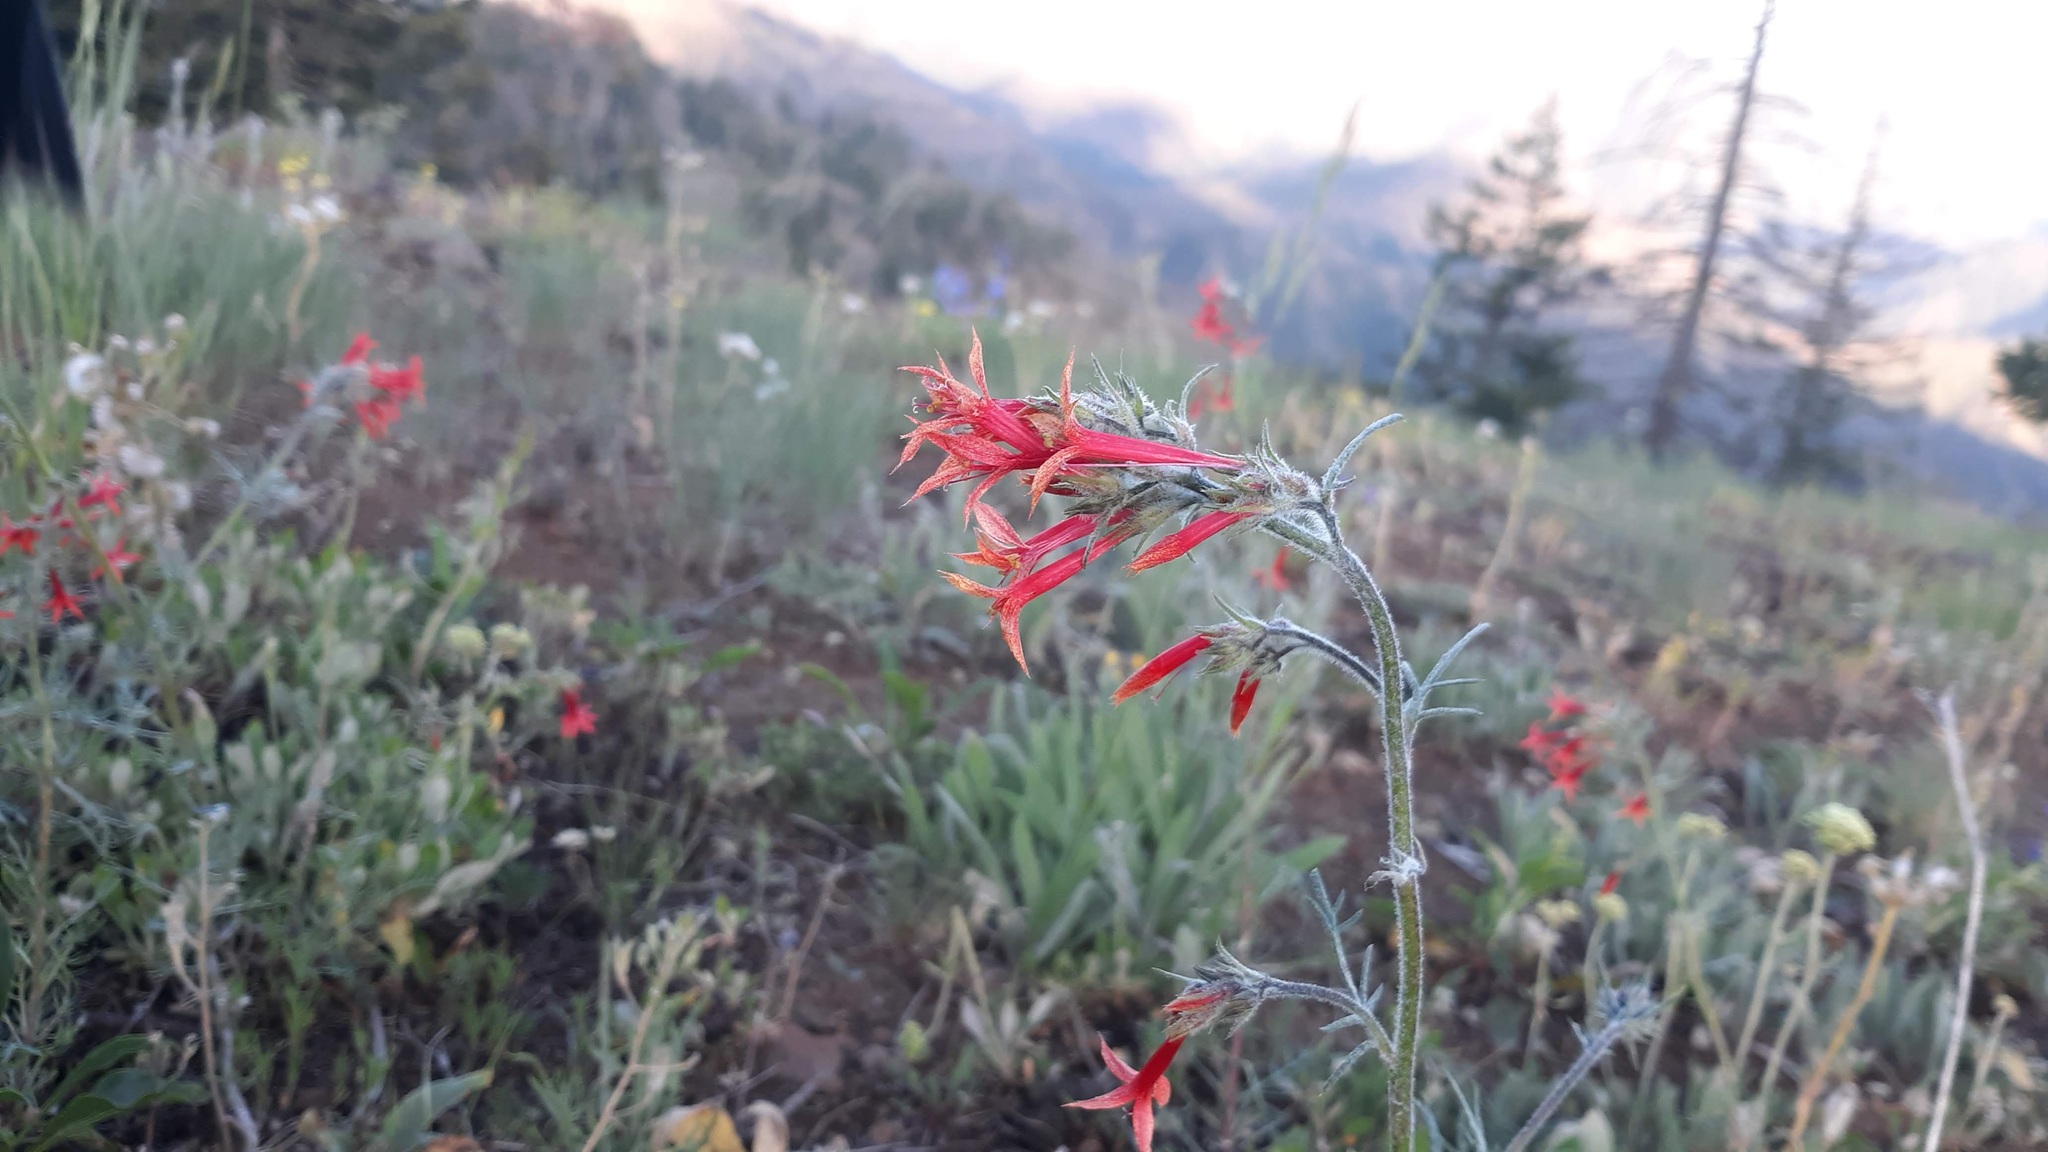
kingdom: Plantae
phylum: Tracheophyta
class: Magnoliopsida
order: Ericales
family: Polemoniaceae
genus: Ipomopsis
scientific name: Ipomopsis aggregata
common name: Scarlet gilia
